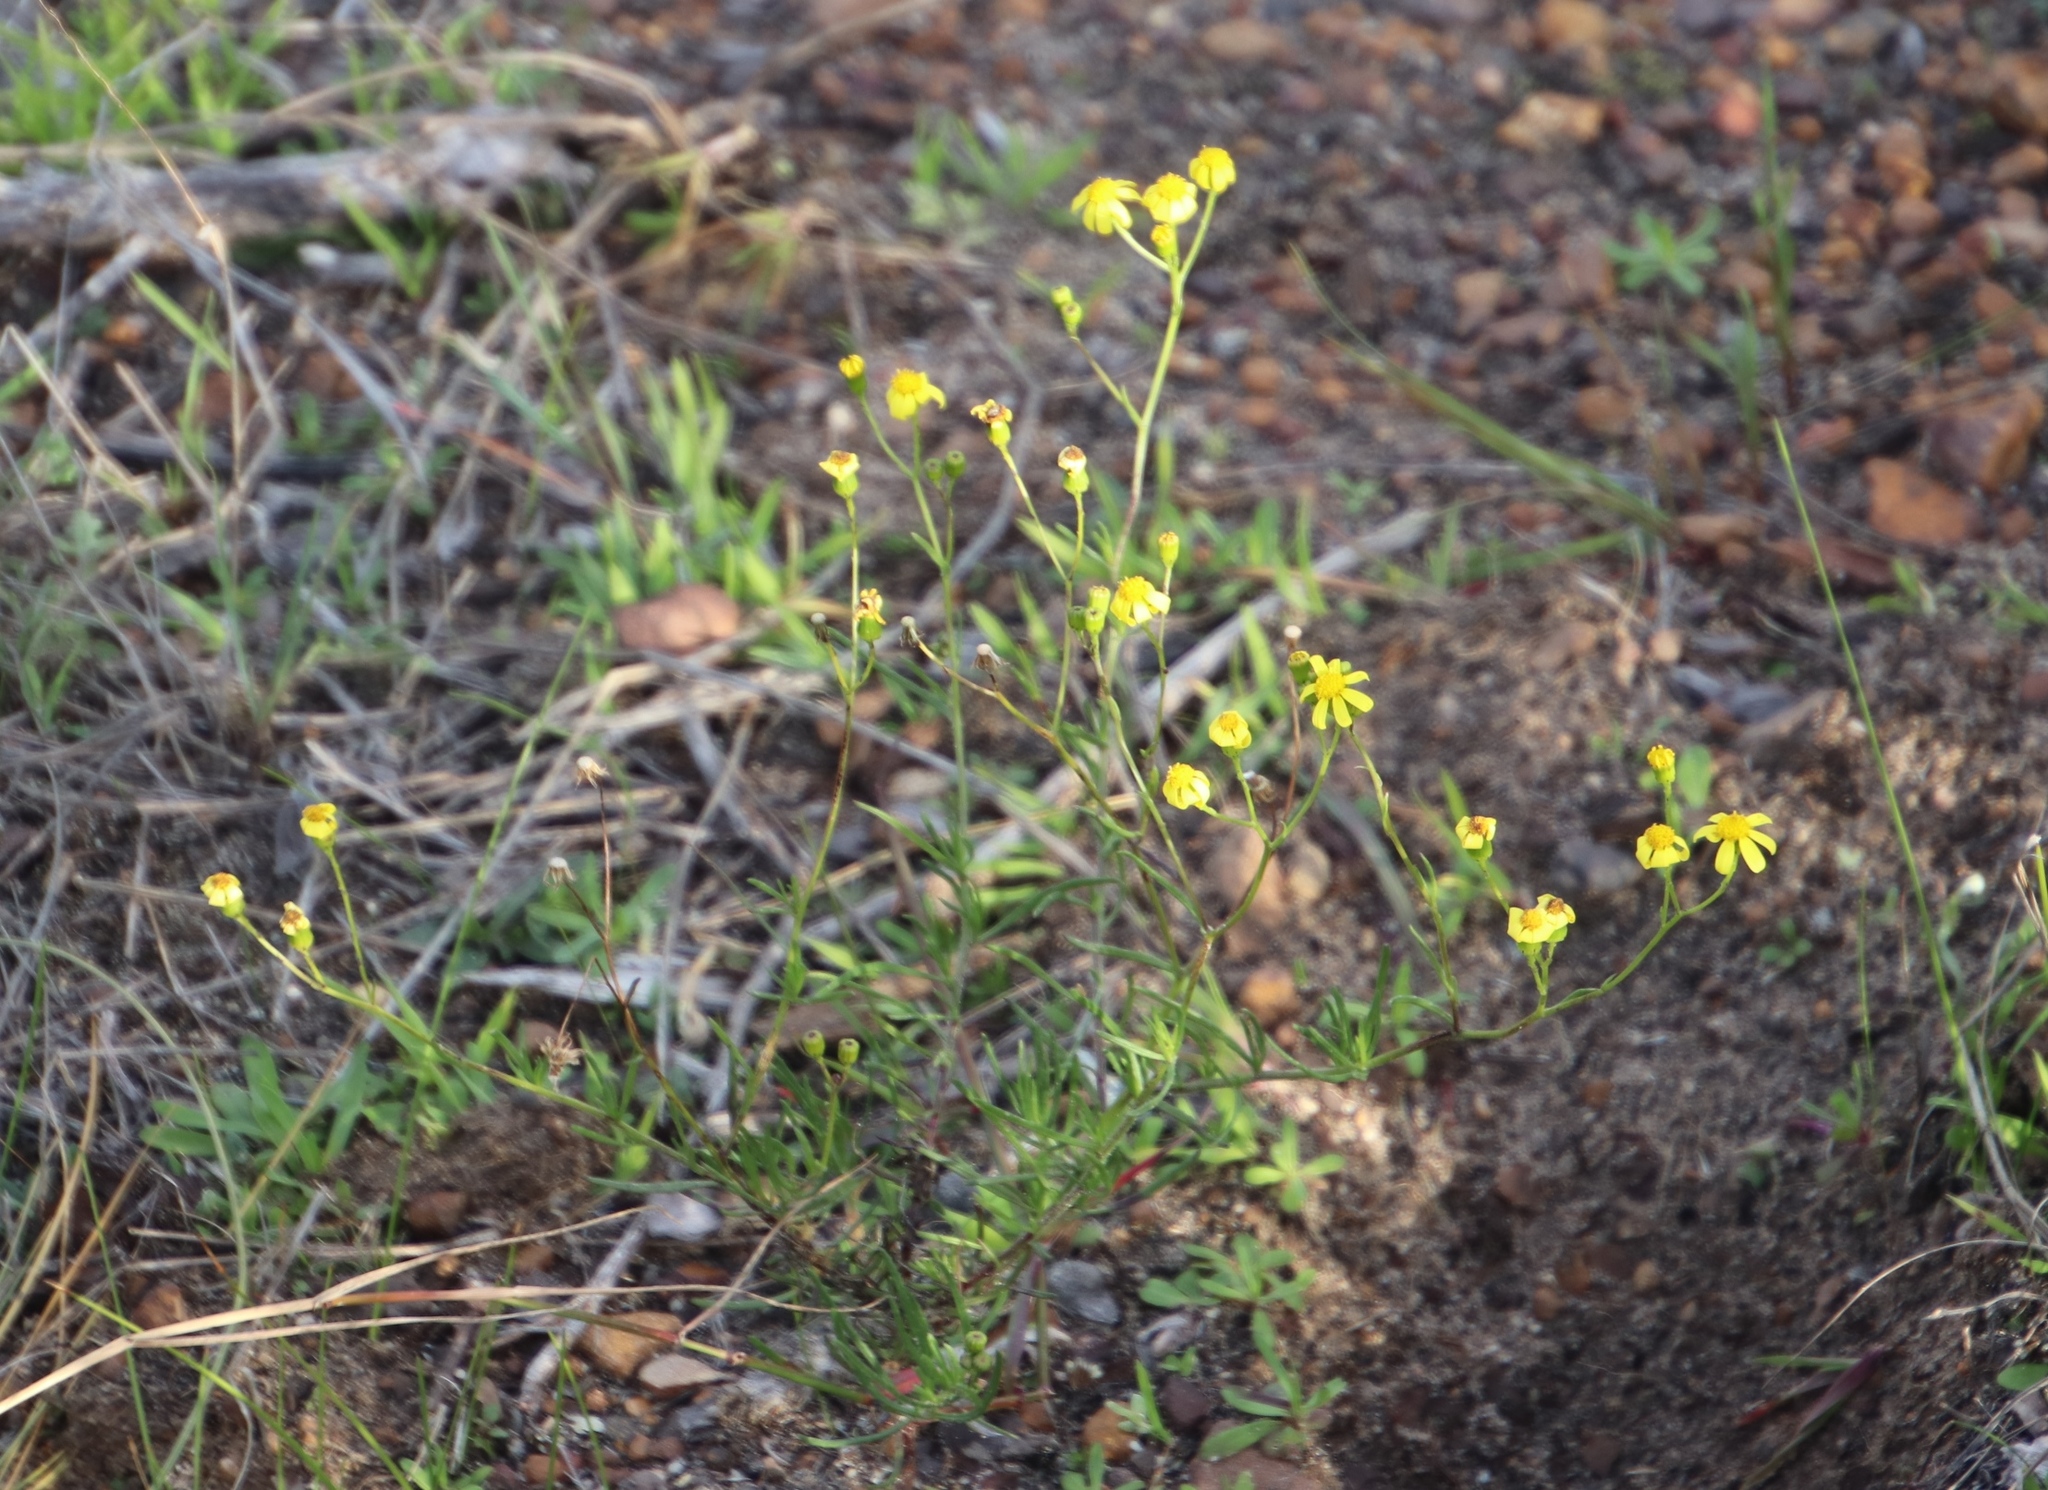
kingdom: Plantae
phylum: Tracheophyta
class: Magnoliopsida
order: Asterales
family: Asteraceae
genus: Senecio
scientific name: Senecio burchellii
